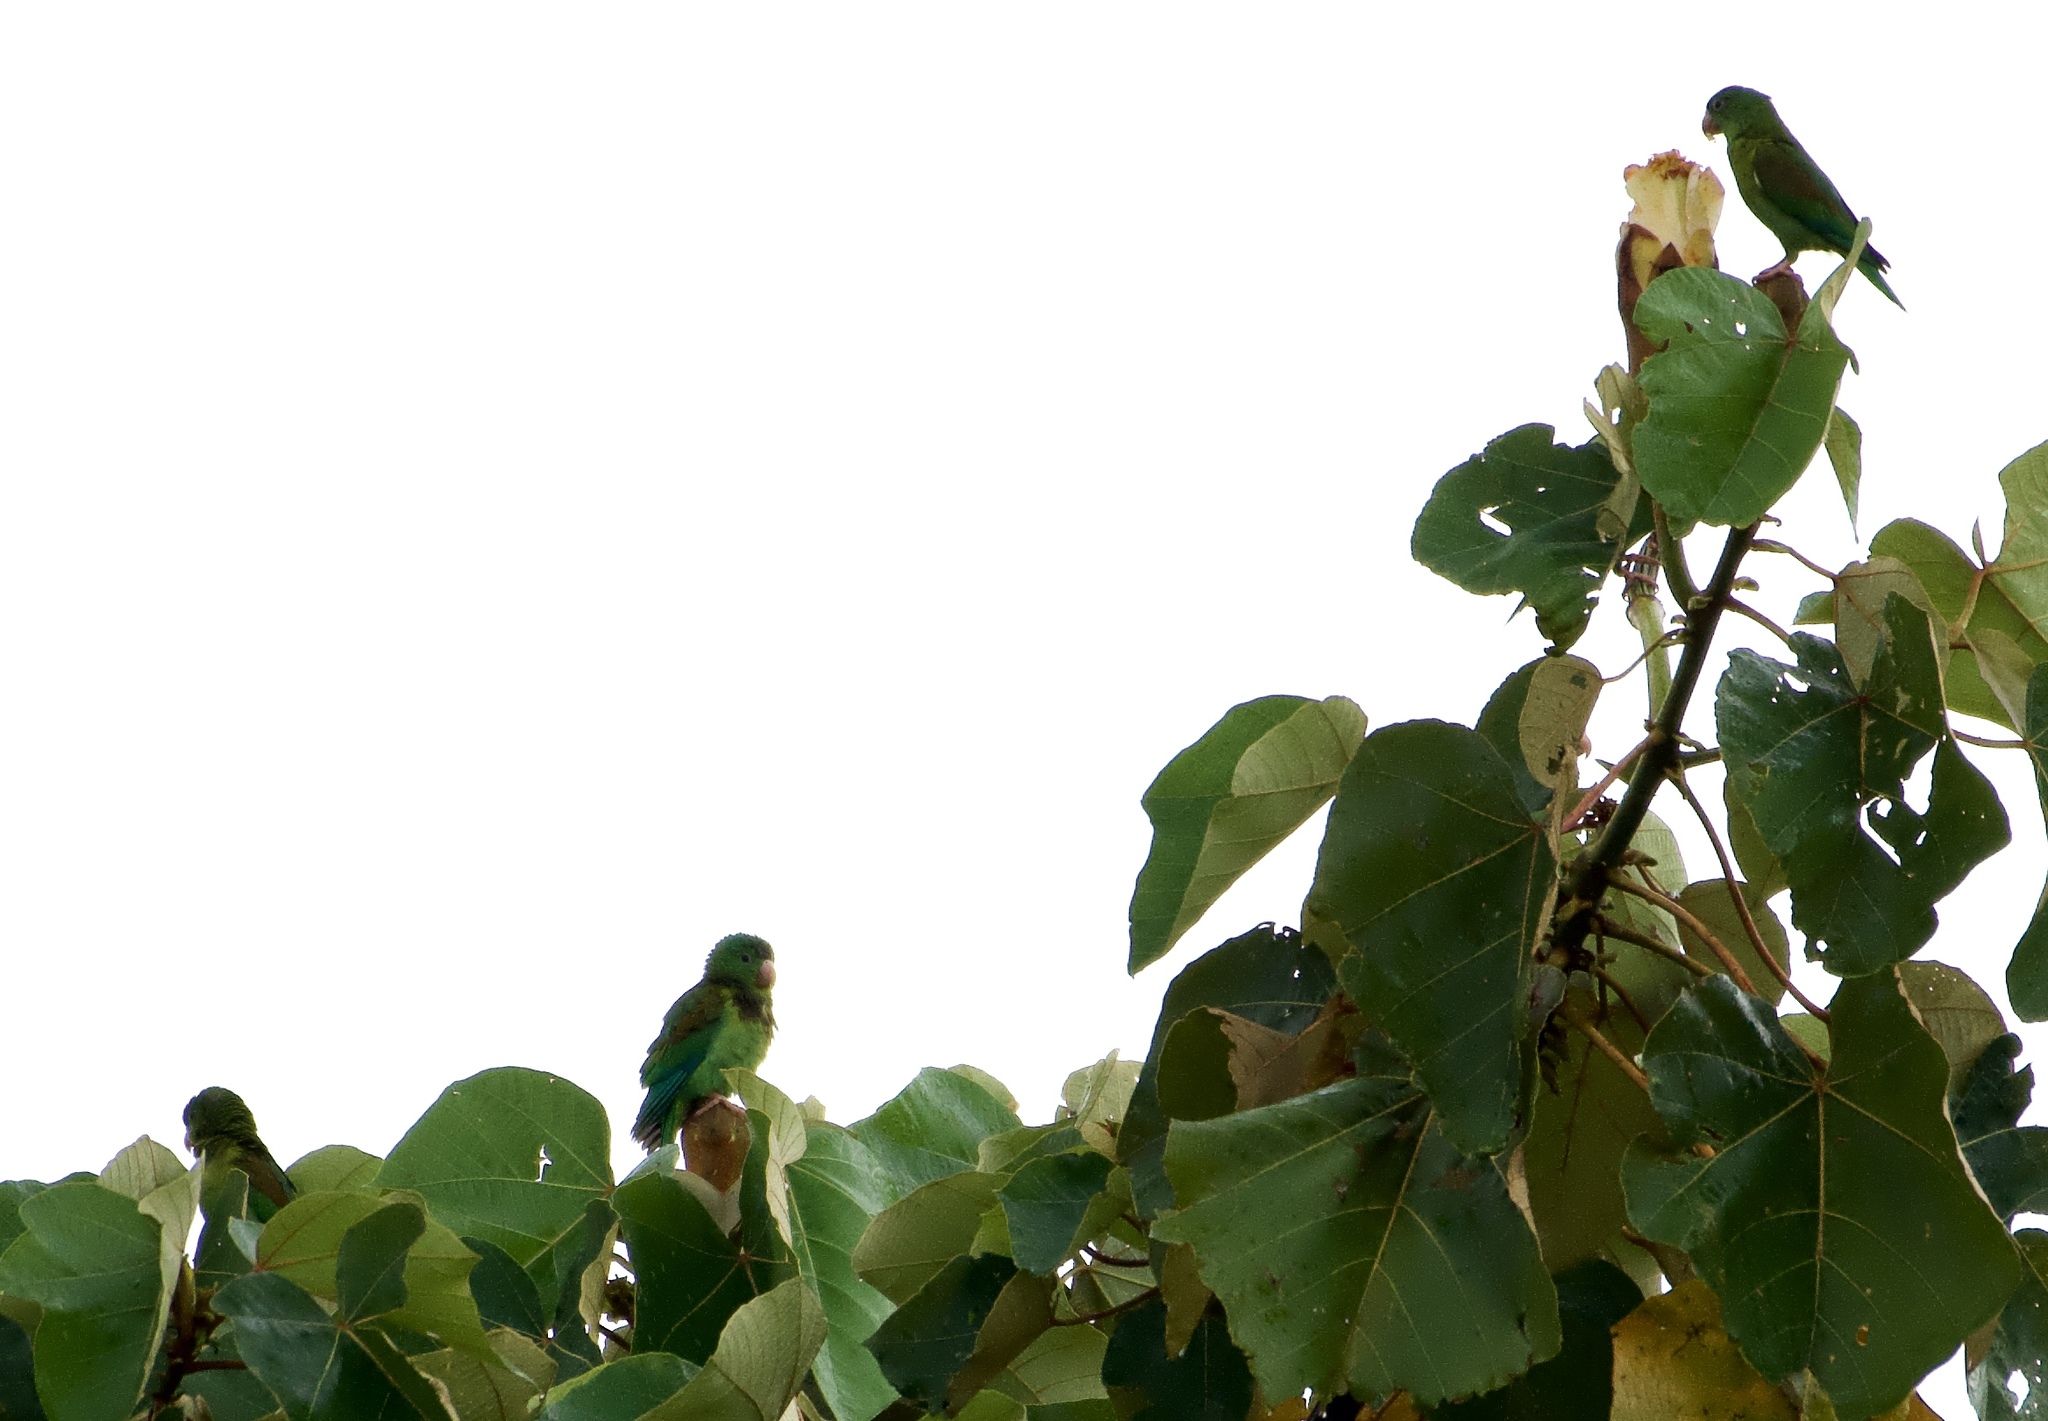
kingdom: Animalia
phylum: Chordata
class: Aves
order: Psittaciformes
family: Psittacidae
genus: Brotogeris
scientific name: Brotogeris jugularis
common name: Orange-chinned parakeet
